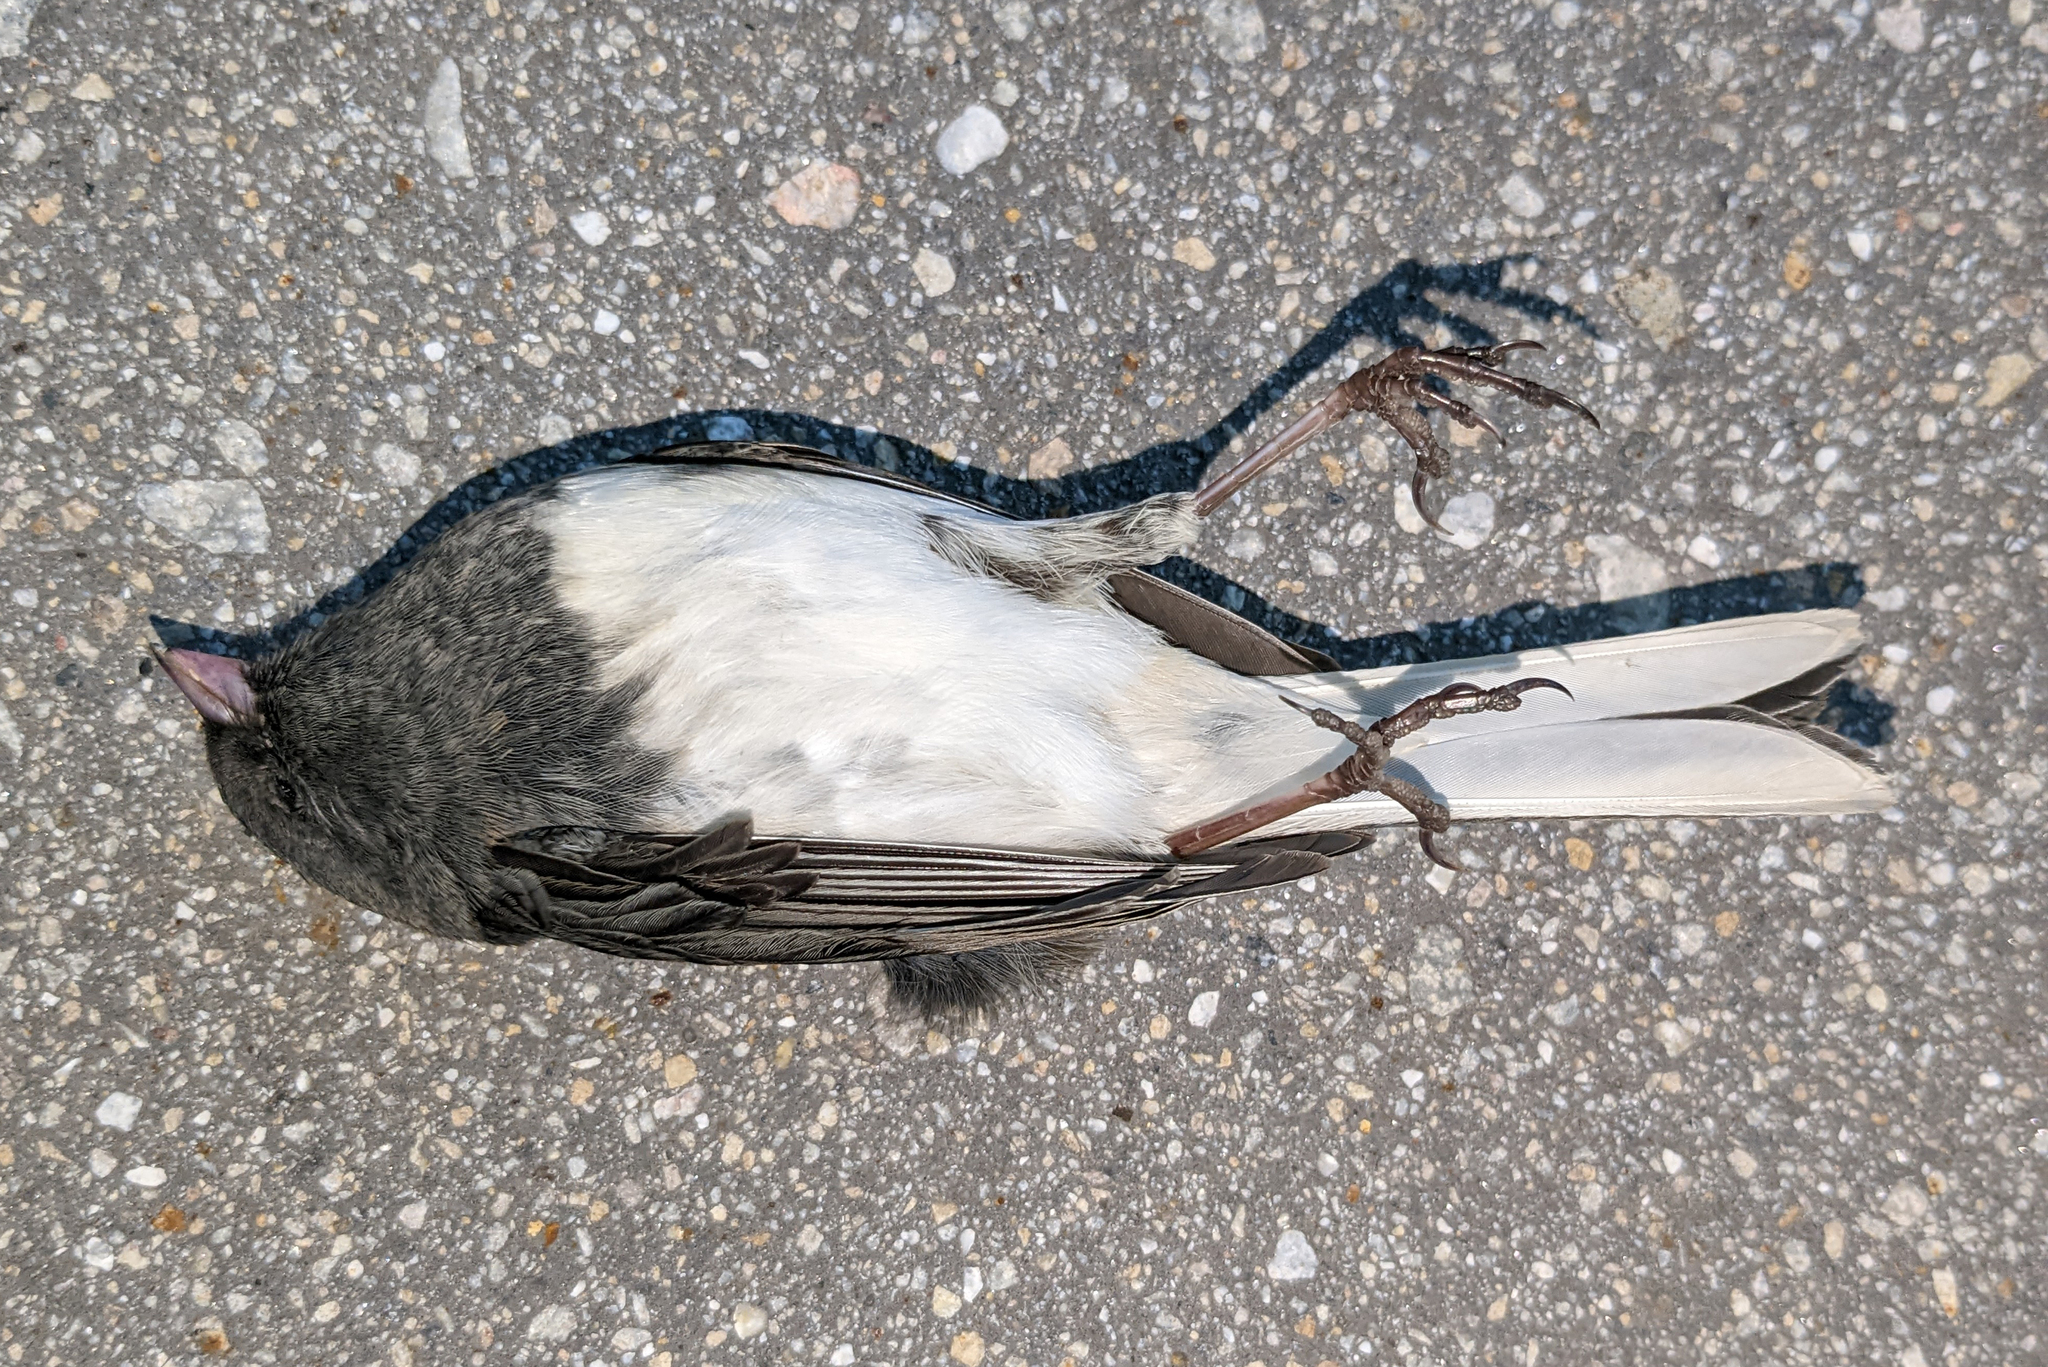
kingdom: Animalia
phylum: Chordata
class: Aves
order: Passeriformes
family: Passerellidae
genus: Junco
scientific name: Junco hyemalis
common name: Dark-eyed junco
